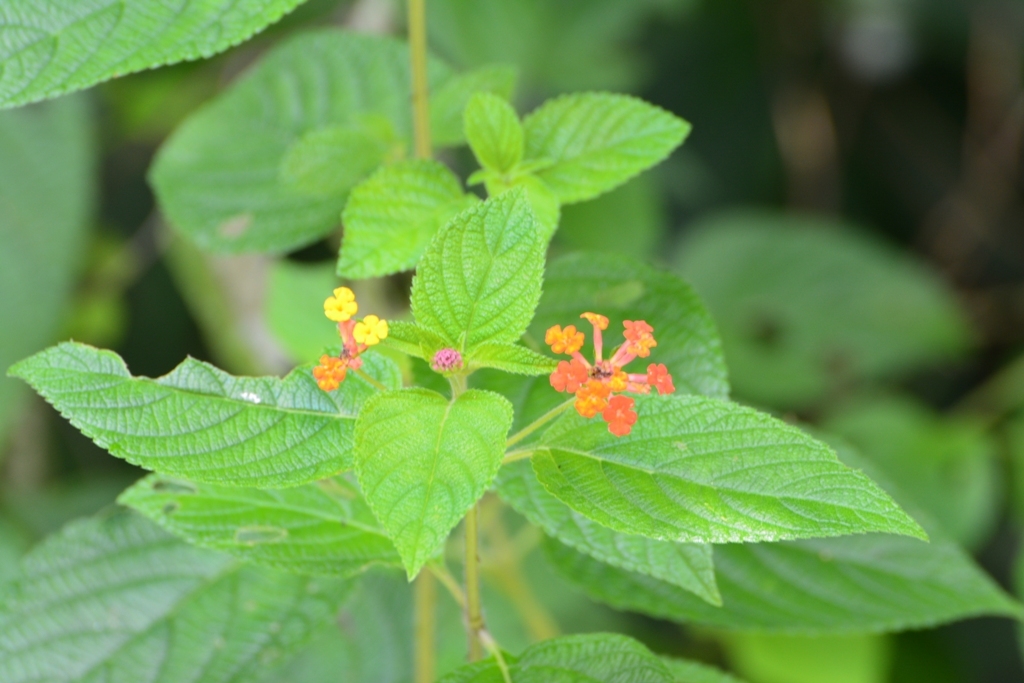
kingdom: Plantae
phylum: Tracheophyta
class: Magnoliopsida
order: Lamiales
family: Verbenaceae
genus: Lantana
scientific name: Lantana camara
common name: Lantana
